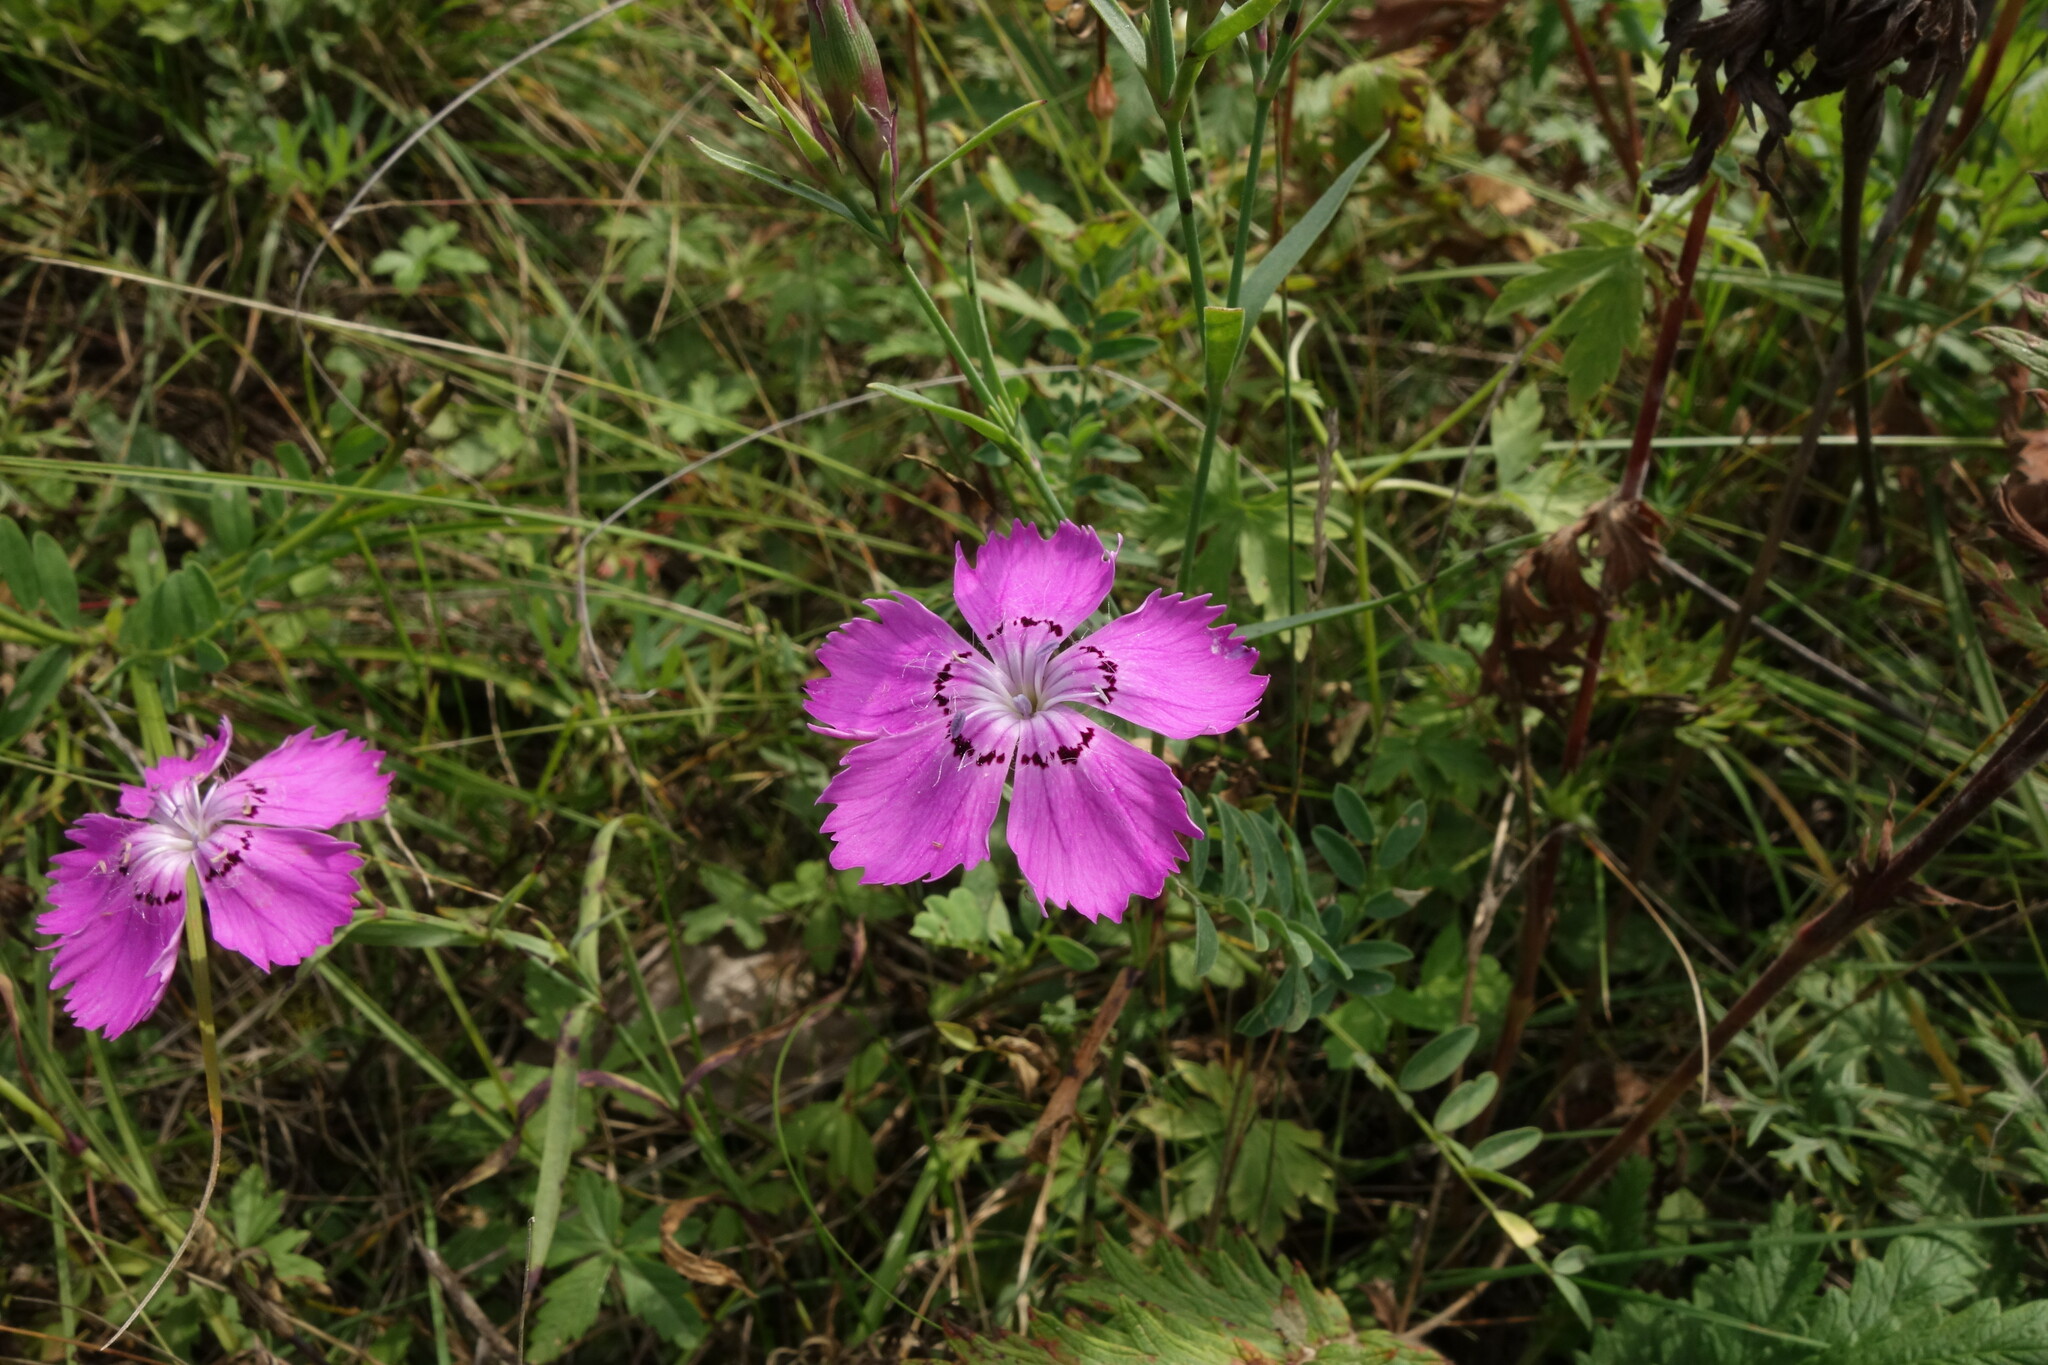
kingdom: Plantae
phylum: Tracheophyta
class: Magnoliopsida
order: Caryophyllales
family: Caryophyllaceae
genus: Dianthus
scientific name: Dianthus chinensis
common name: Rainbow pink
